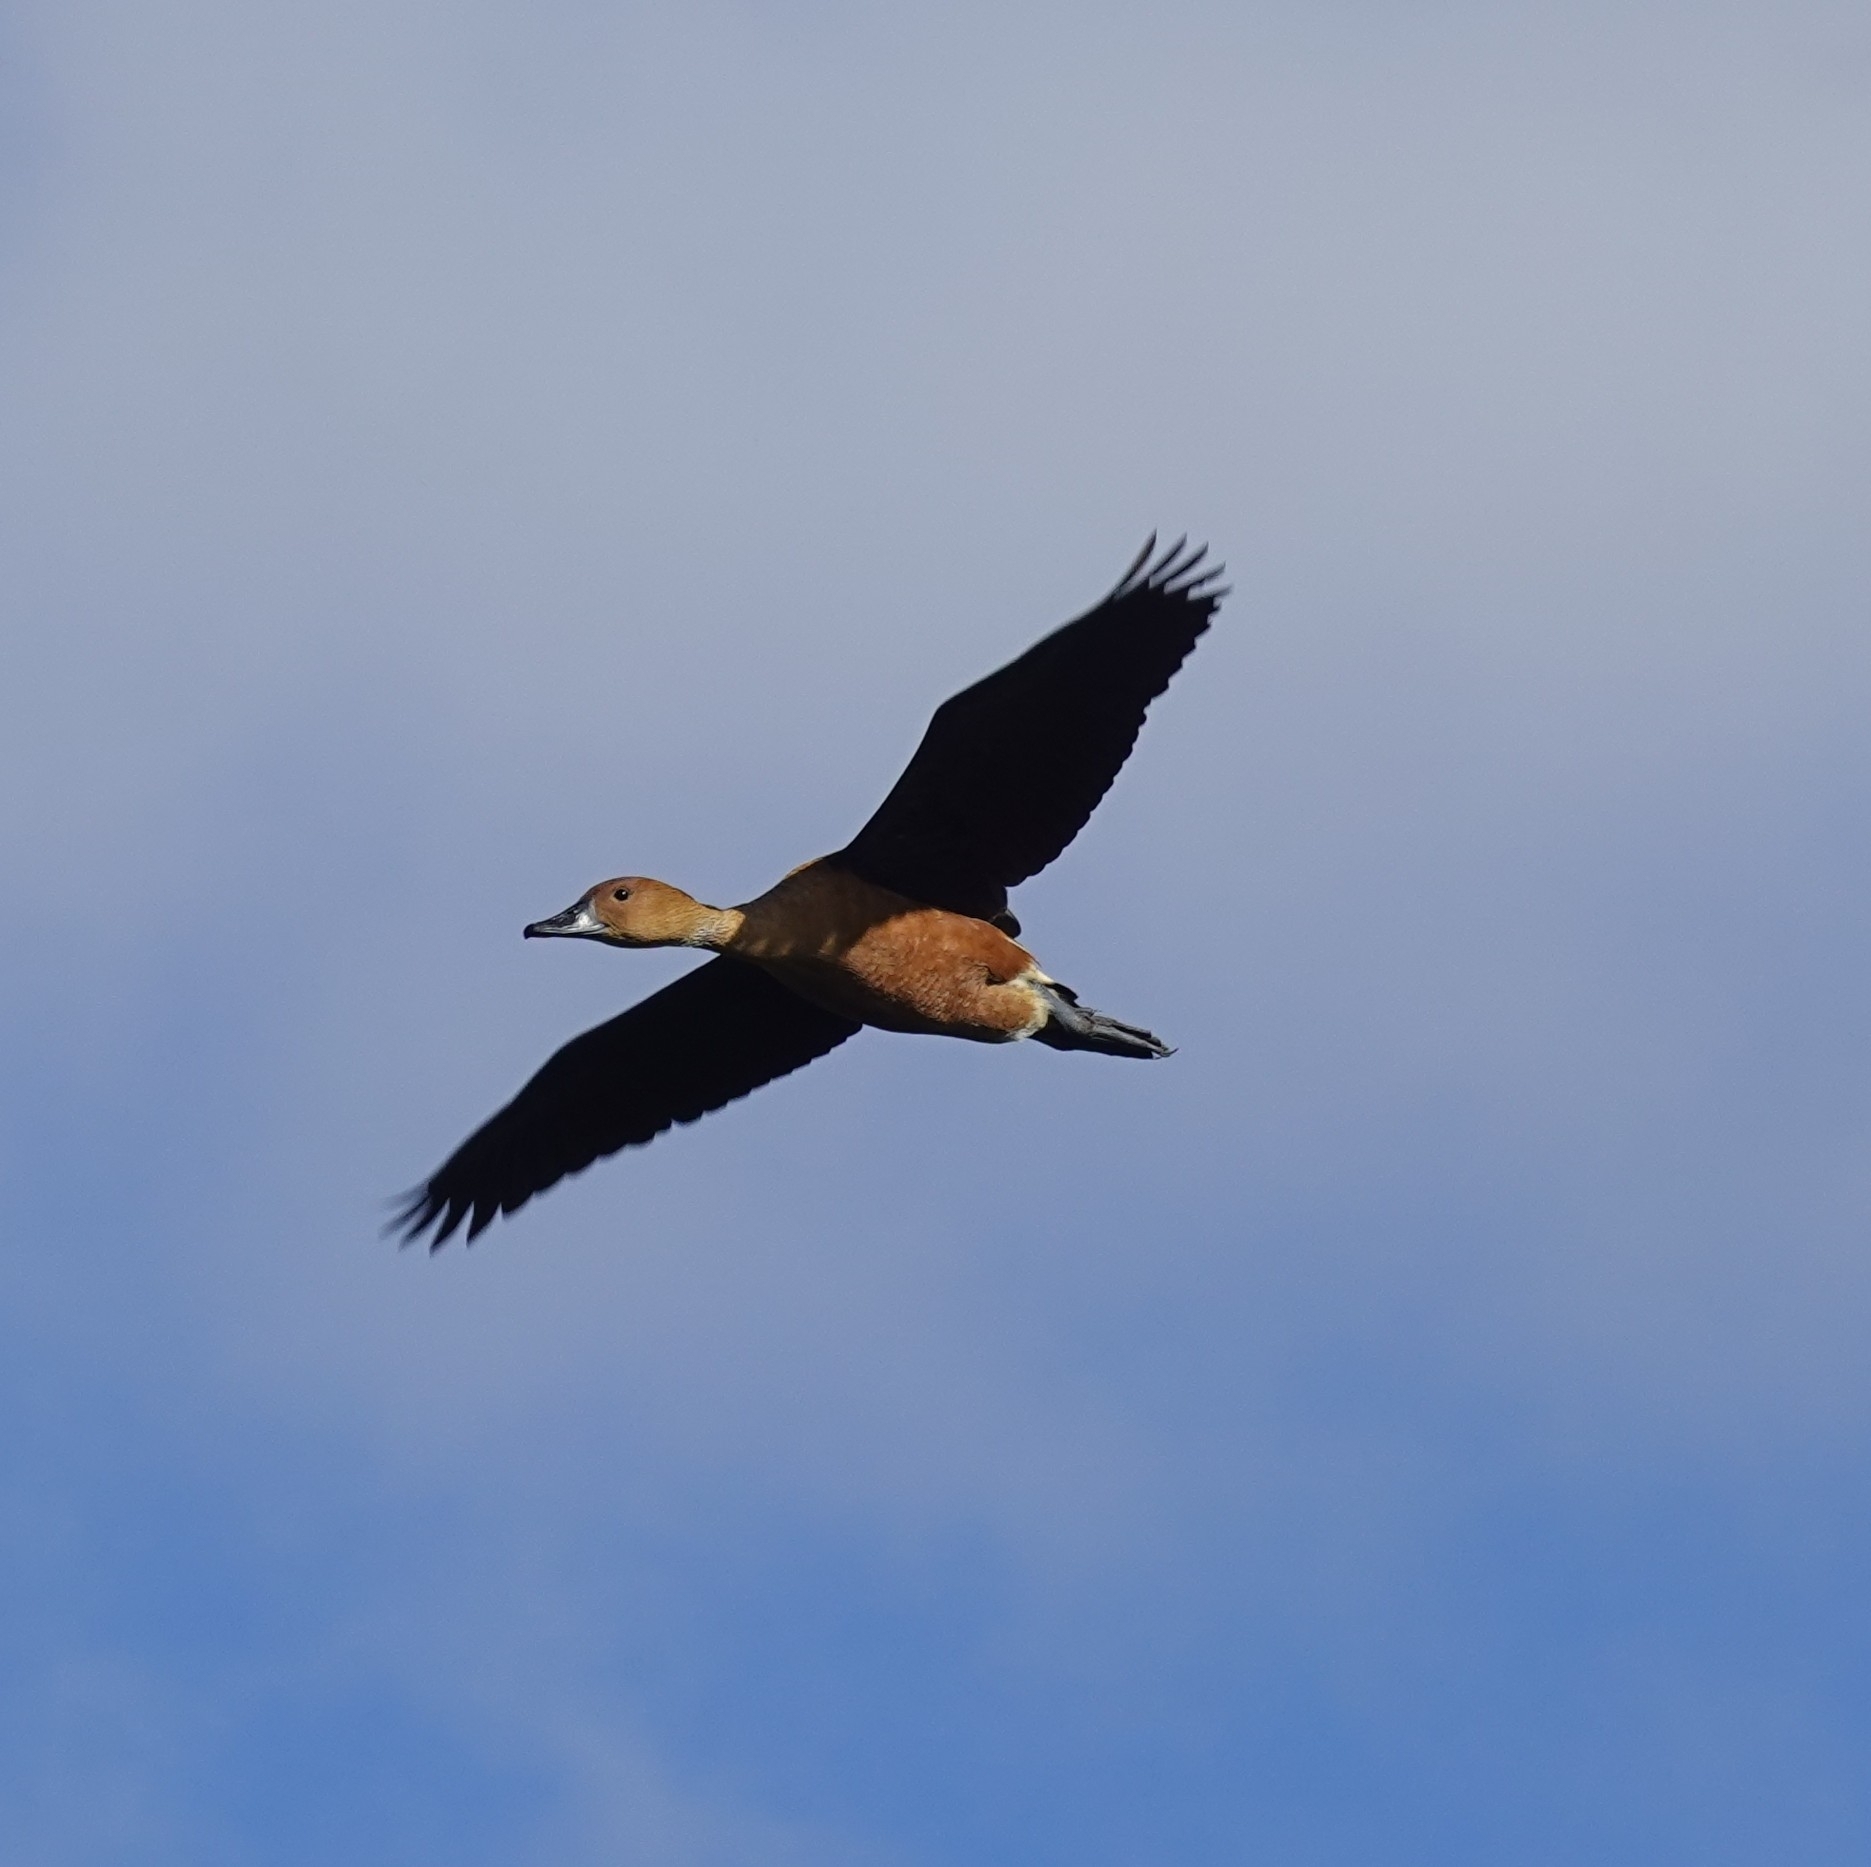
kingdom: Animalia
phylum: Chordata
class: Aves
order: Anseriformes
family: Anatidae
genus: Dendrocygna
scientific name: Dendrocygna bicolor
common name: Fulvous whistling duck
